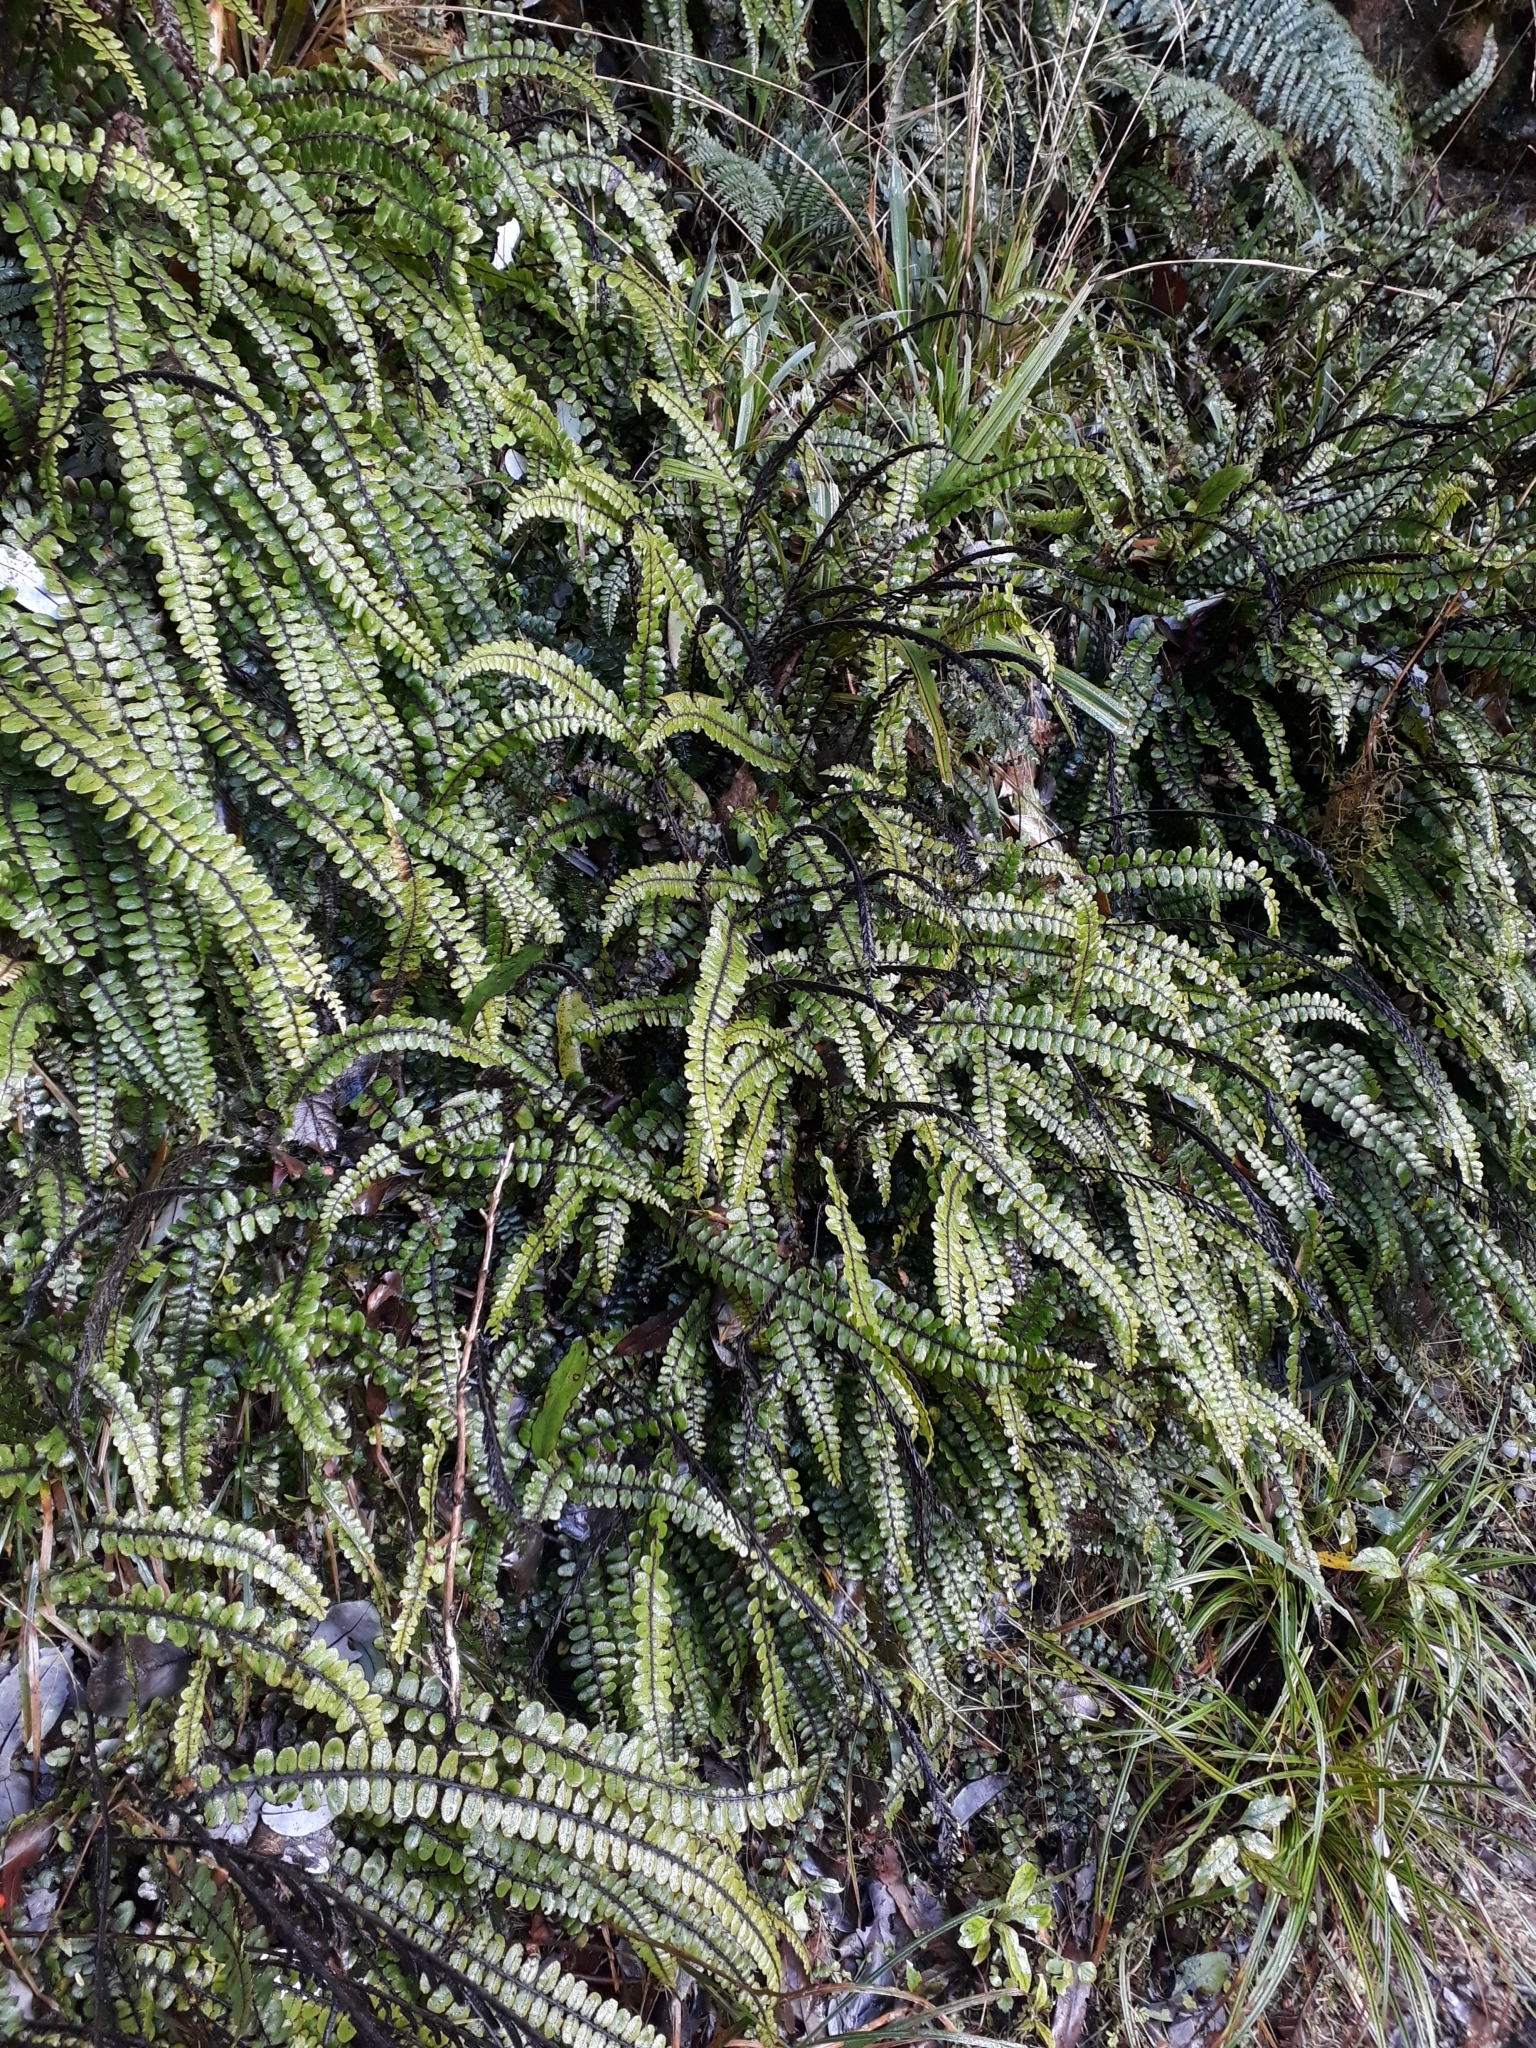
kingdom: Plantae
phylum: Tracheophyta
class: Polypodiopsida
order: Polypodiales
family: Blechnaceae
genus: Cranfillia
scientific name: Cranfillia fluviatilis
